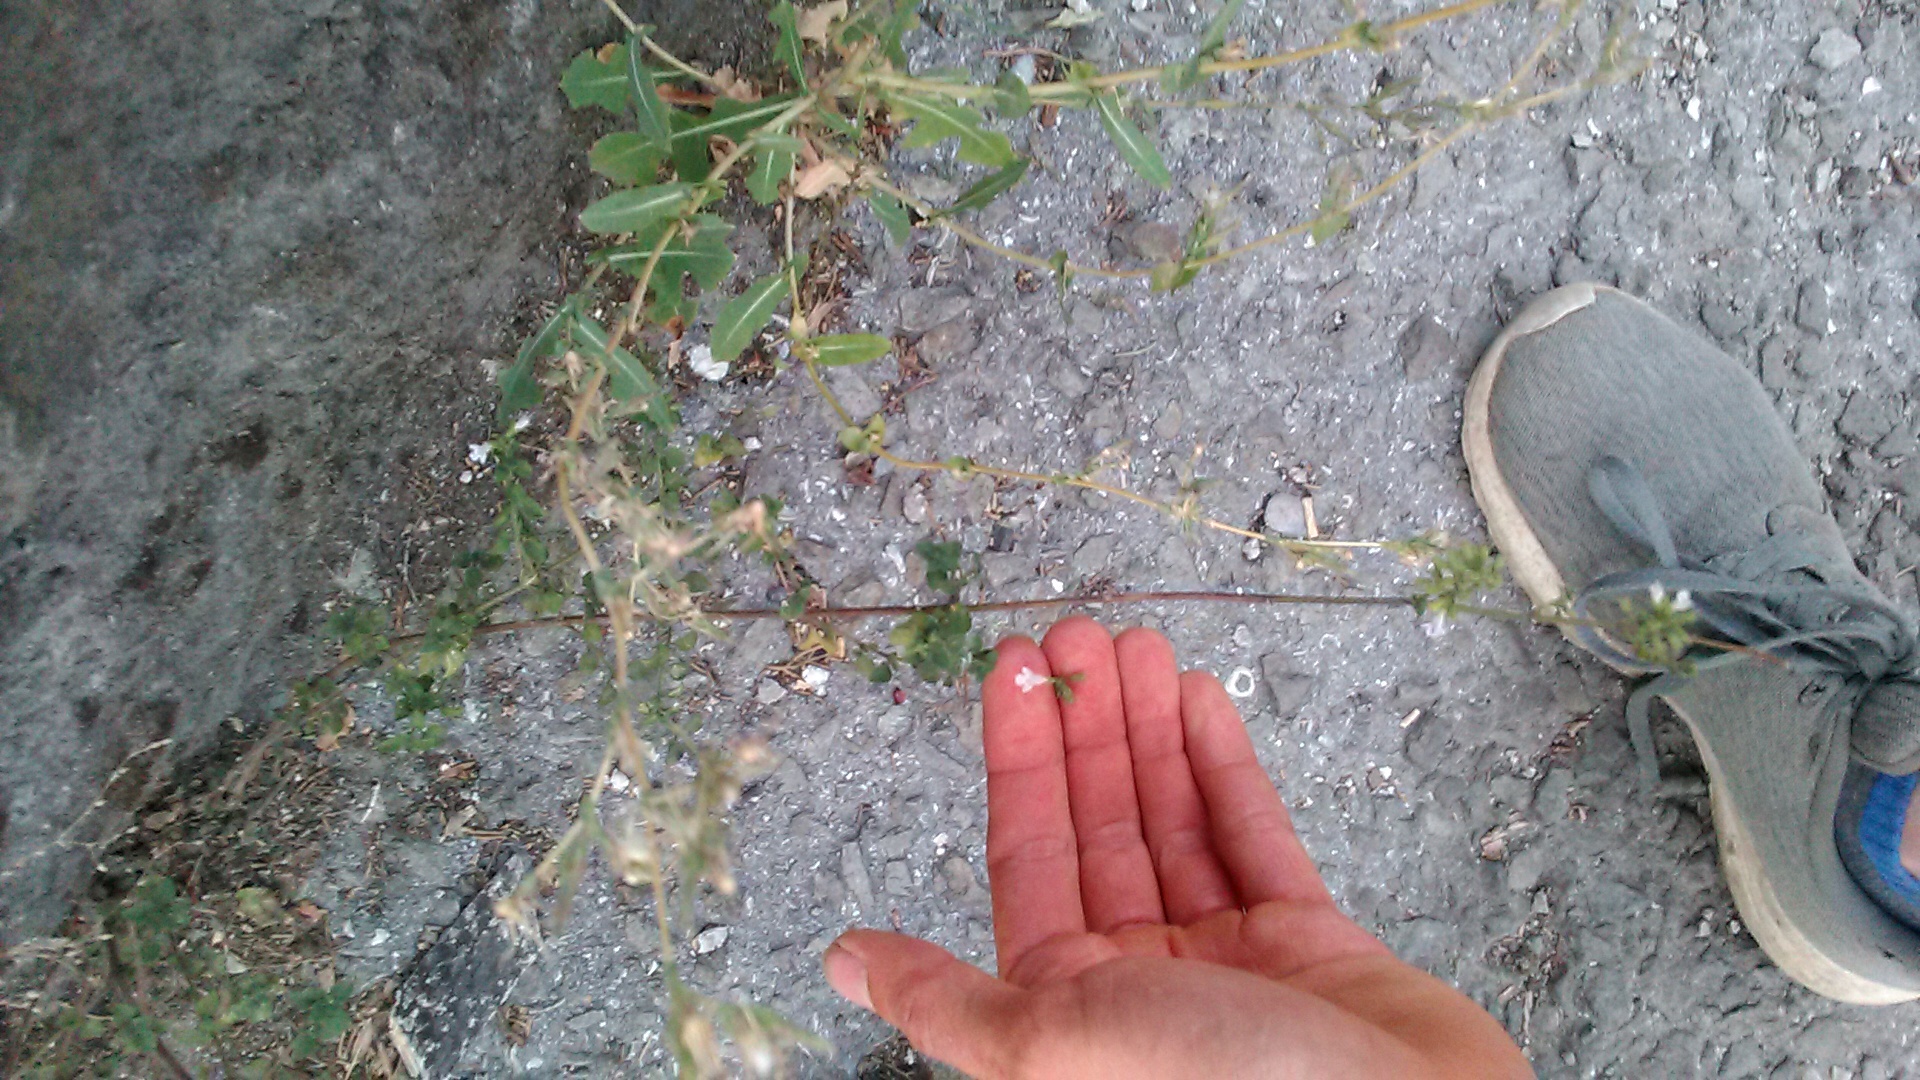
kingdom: Plantae
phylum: Tracheophyta
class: Magnoliopsida
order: Lamiales
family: Lamiaceae
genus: Clinopodium
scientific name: Clinopodium nepeta
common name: Lesser calamint
